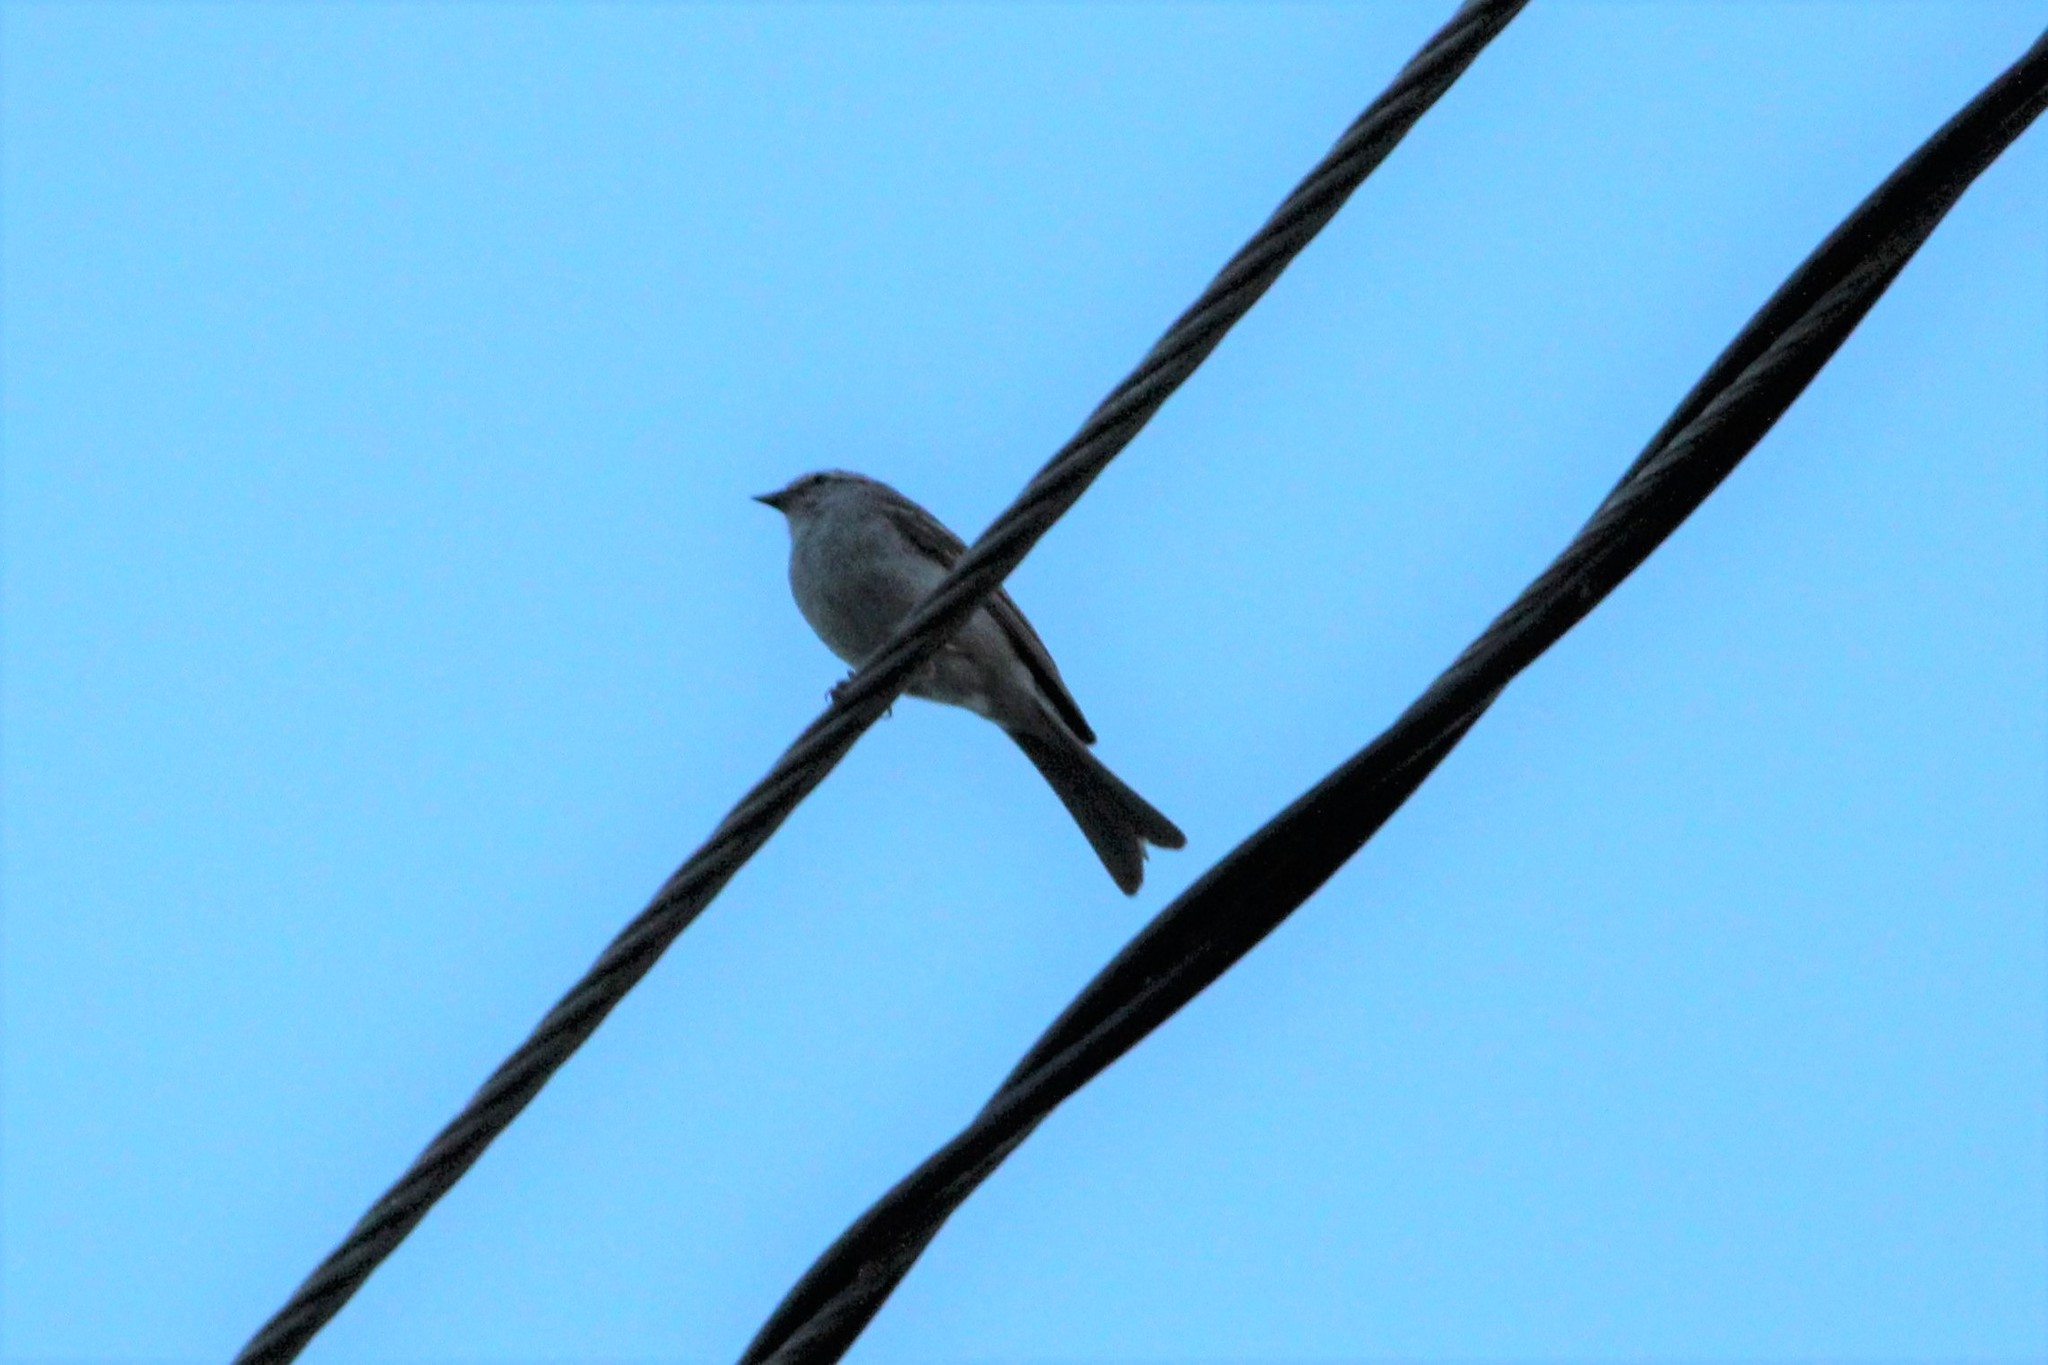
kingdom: Animalia
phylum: Chordata
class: Aves
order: Passeriformes
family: Passerellidae
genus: Spizella
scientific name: Spizella passerina
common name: Chipping sparrow
